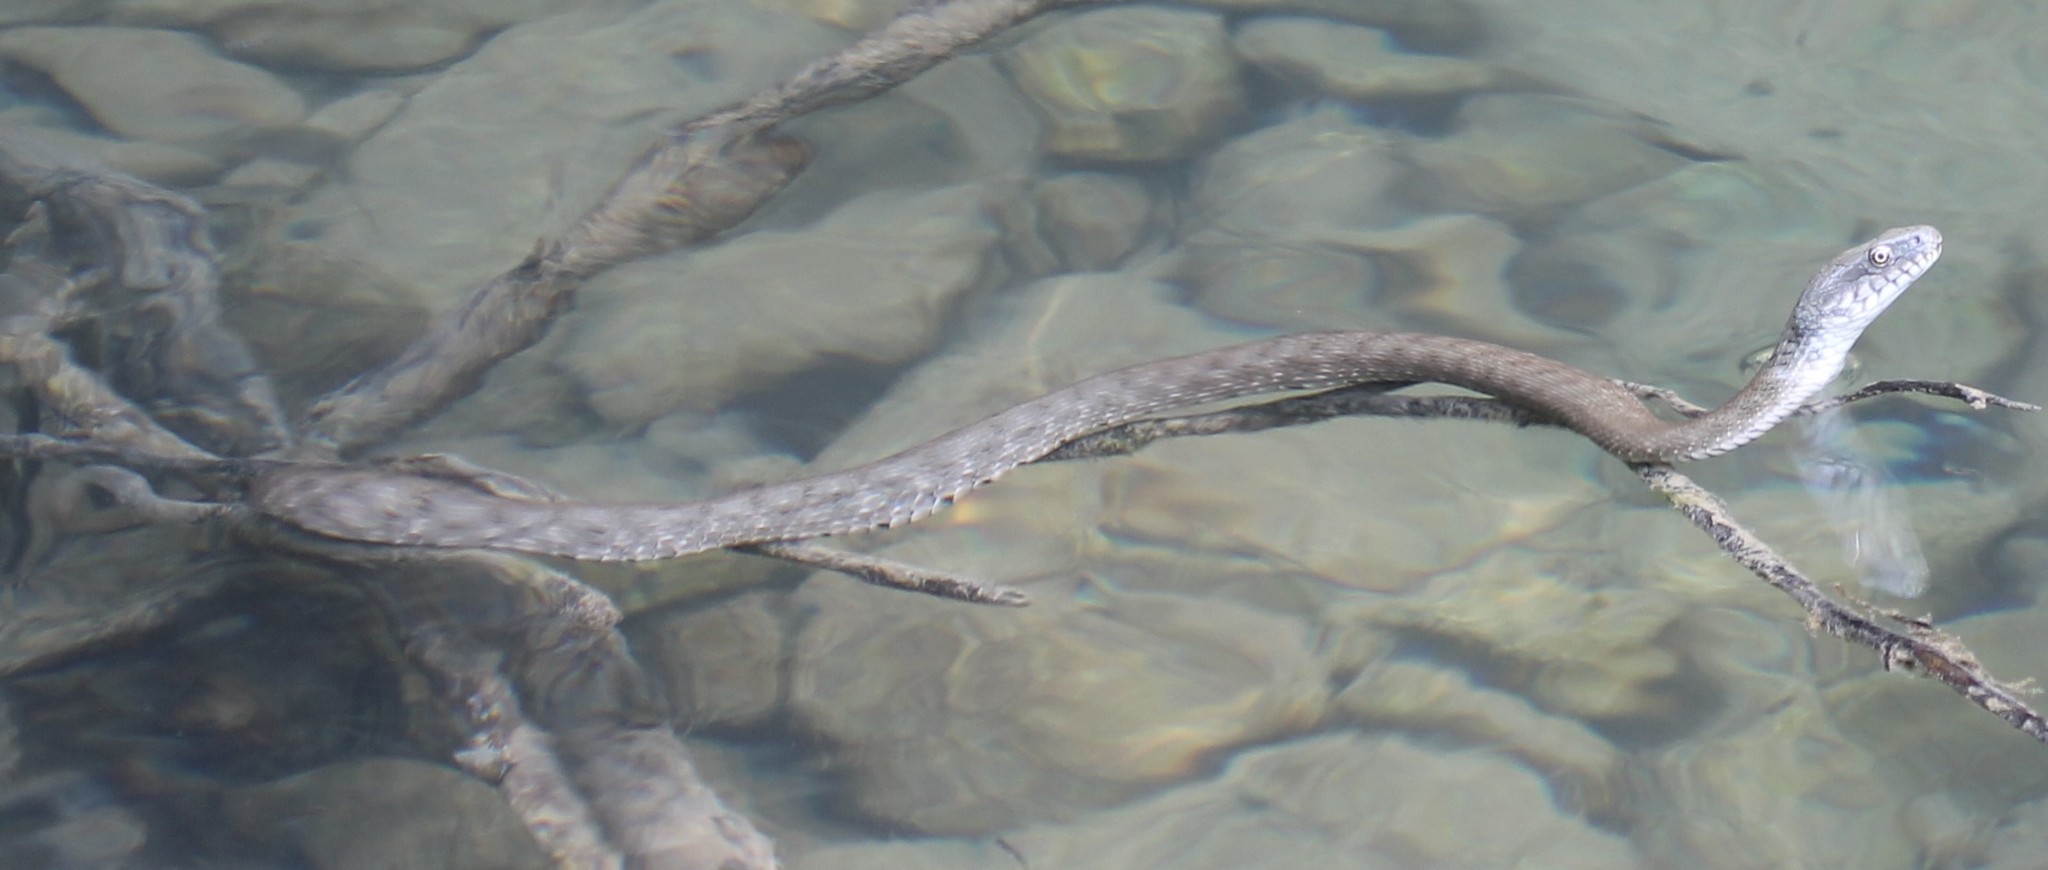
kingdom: Animalia
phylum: Chordata
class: Squamata
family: Colubridae
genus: Natrix
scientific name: Natrix tessellata
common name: Dice snake
